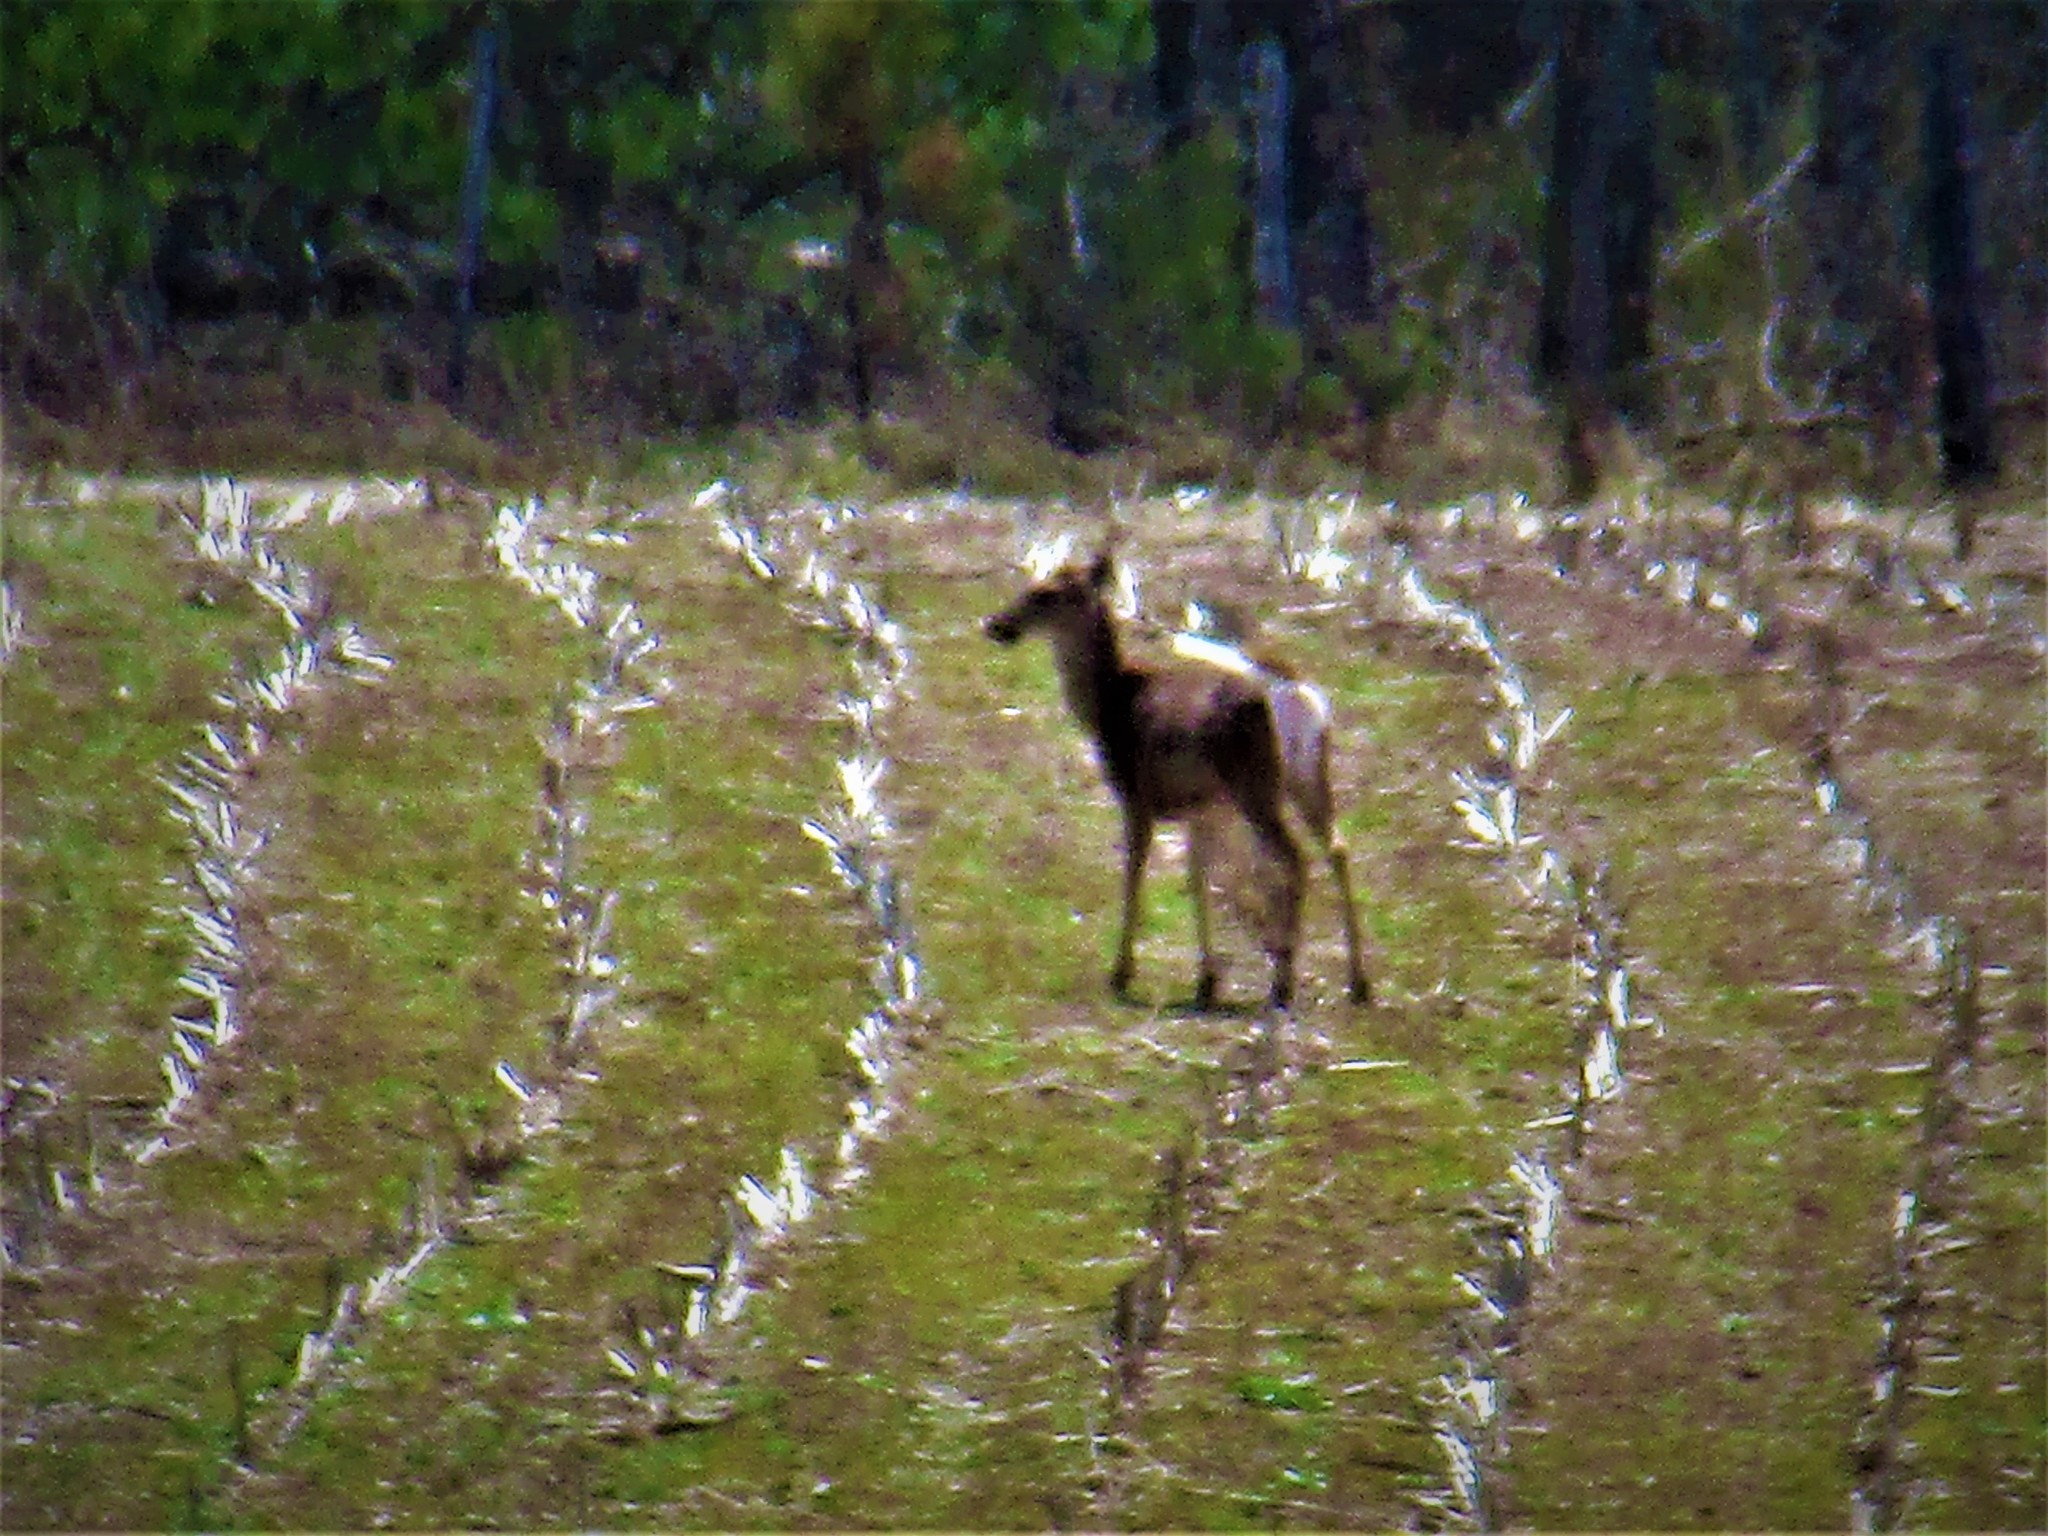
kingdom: Animalia
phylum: Chordata
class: Mammalia
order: Artiodactyla
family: Cervidae
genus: Odocoileus
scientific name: Odocoileus virginianus
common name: White-tailed deer
